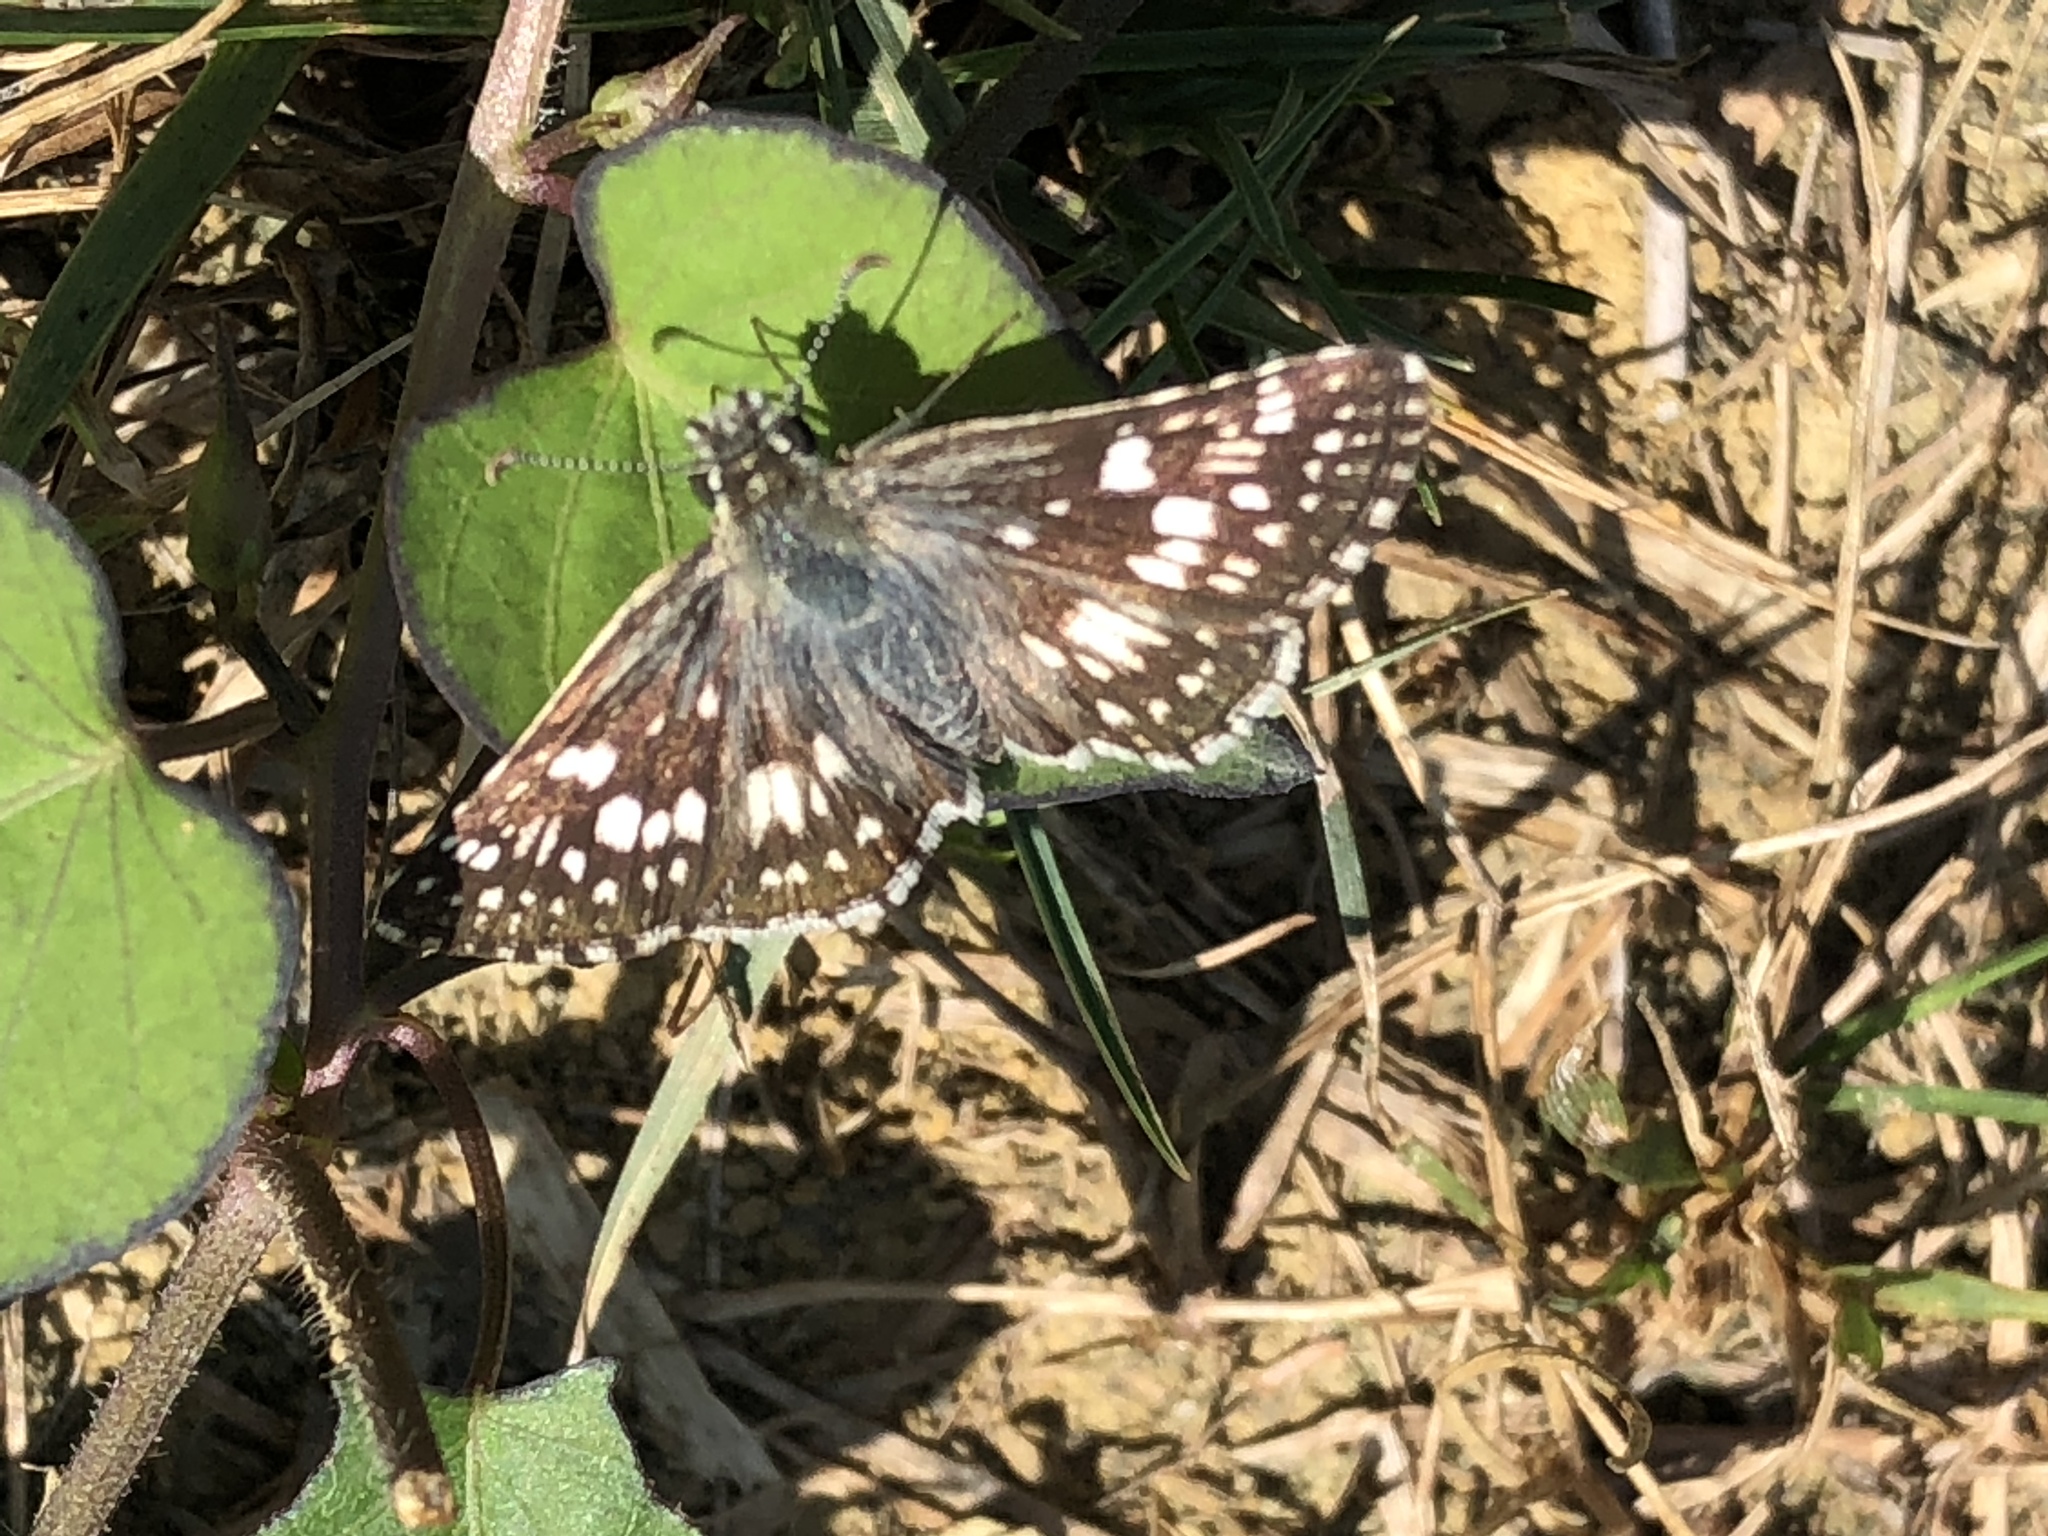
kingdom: Animalia
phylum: Arthropoda
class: Insecta
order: Lepidoptera
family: Hesperiidae
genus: Burnsius
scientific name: Burnsius communis
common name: Common checkered-skipper
